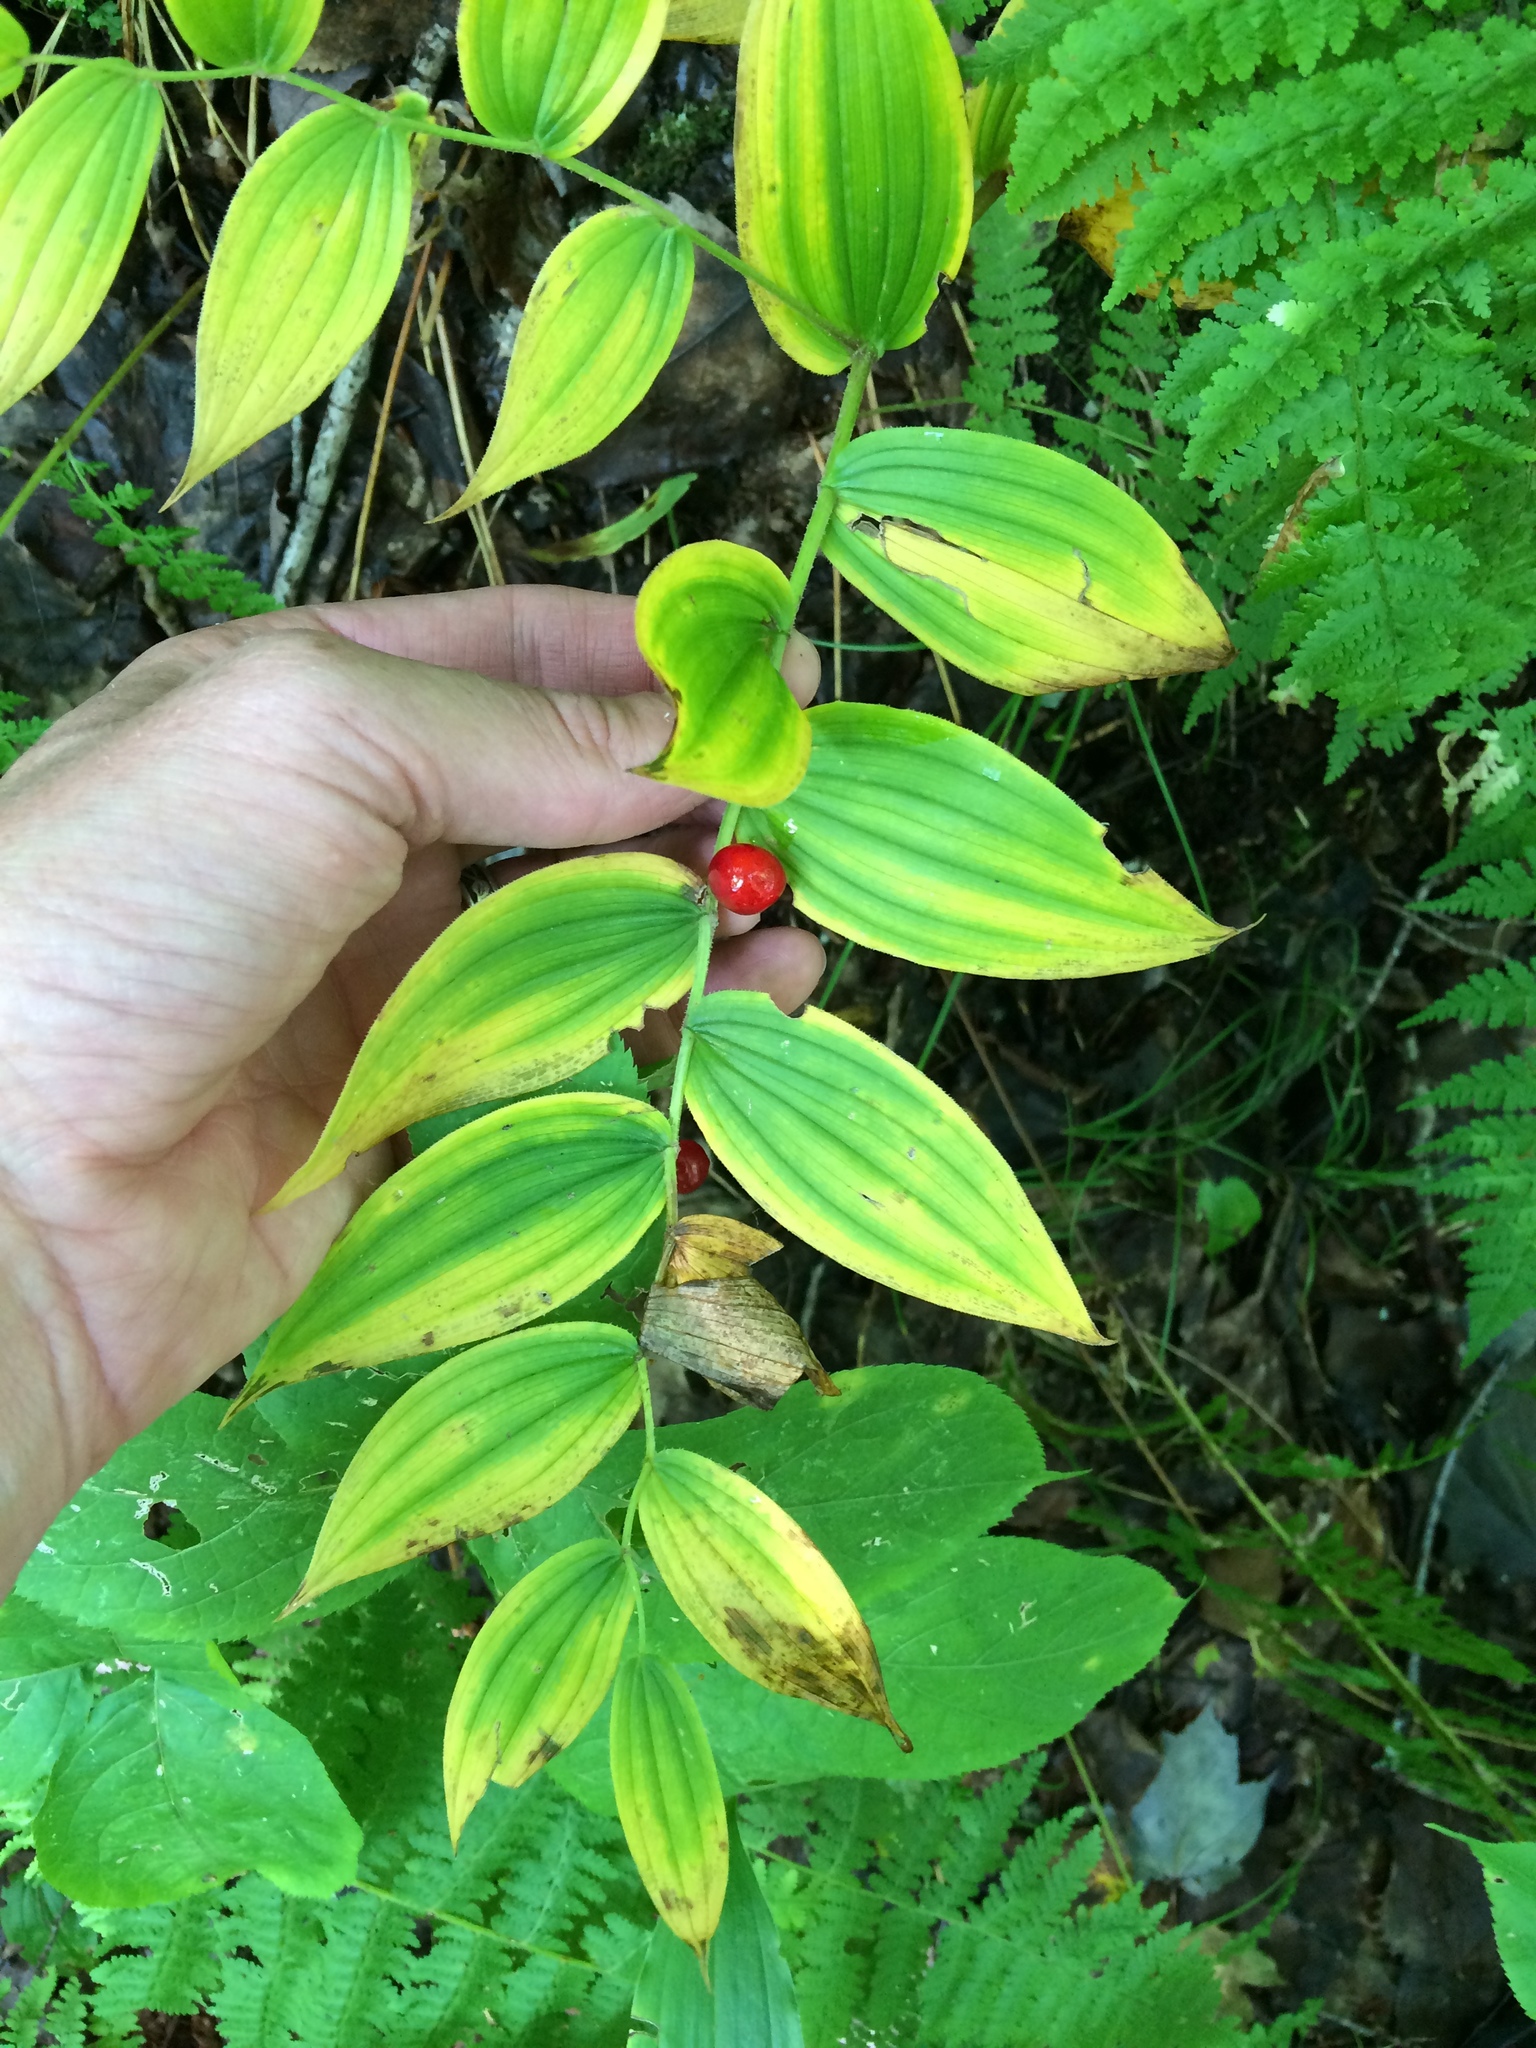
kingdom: Plantae
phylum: Tracheophyta
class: Liliopsida
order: Liliales
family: Liliaceae
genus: Streptopus
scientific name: Streptopus lanceolatus
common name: Rose mandarin
